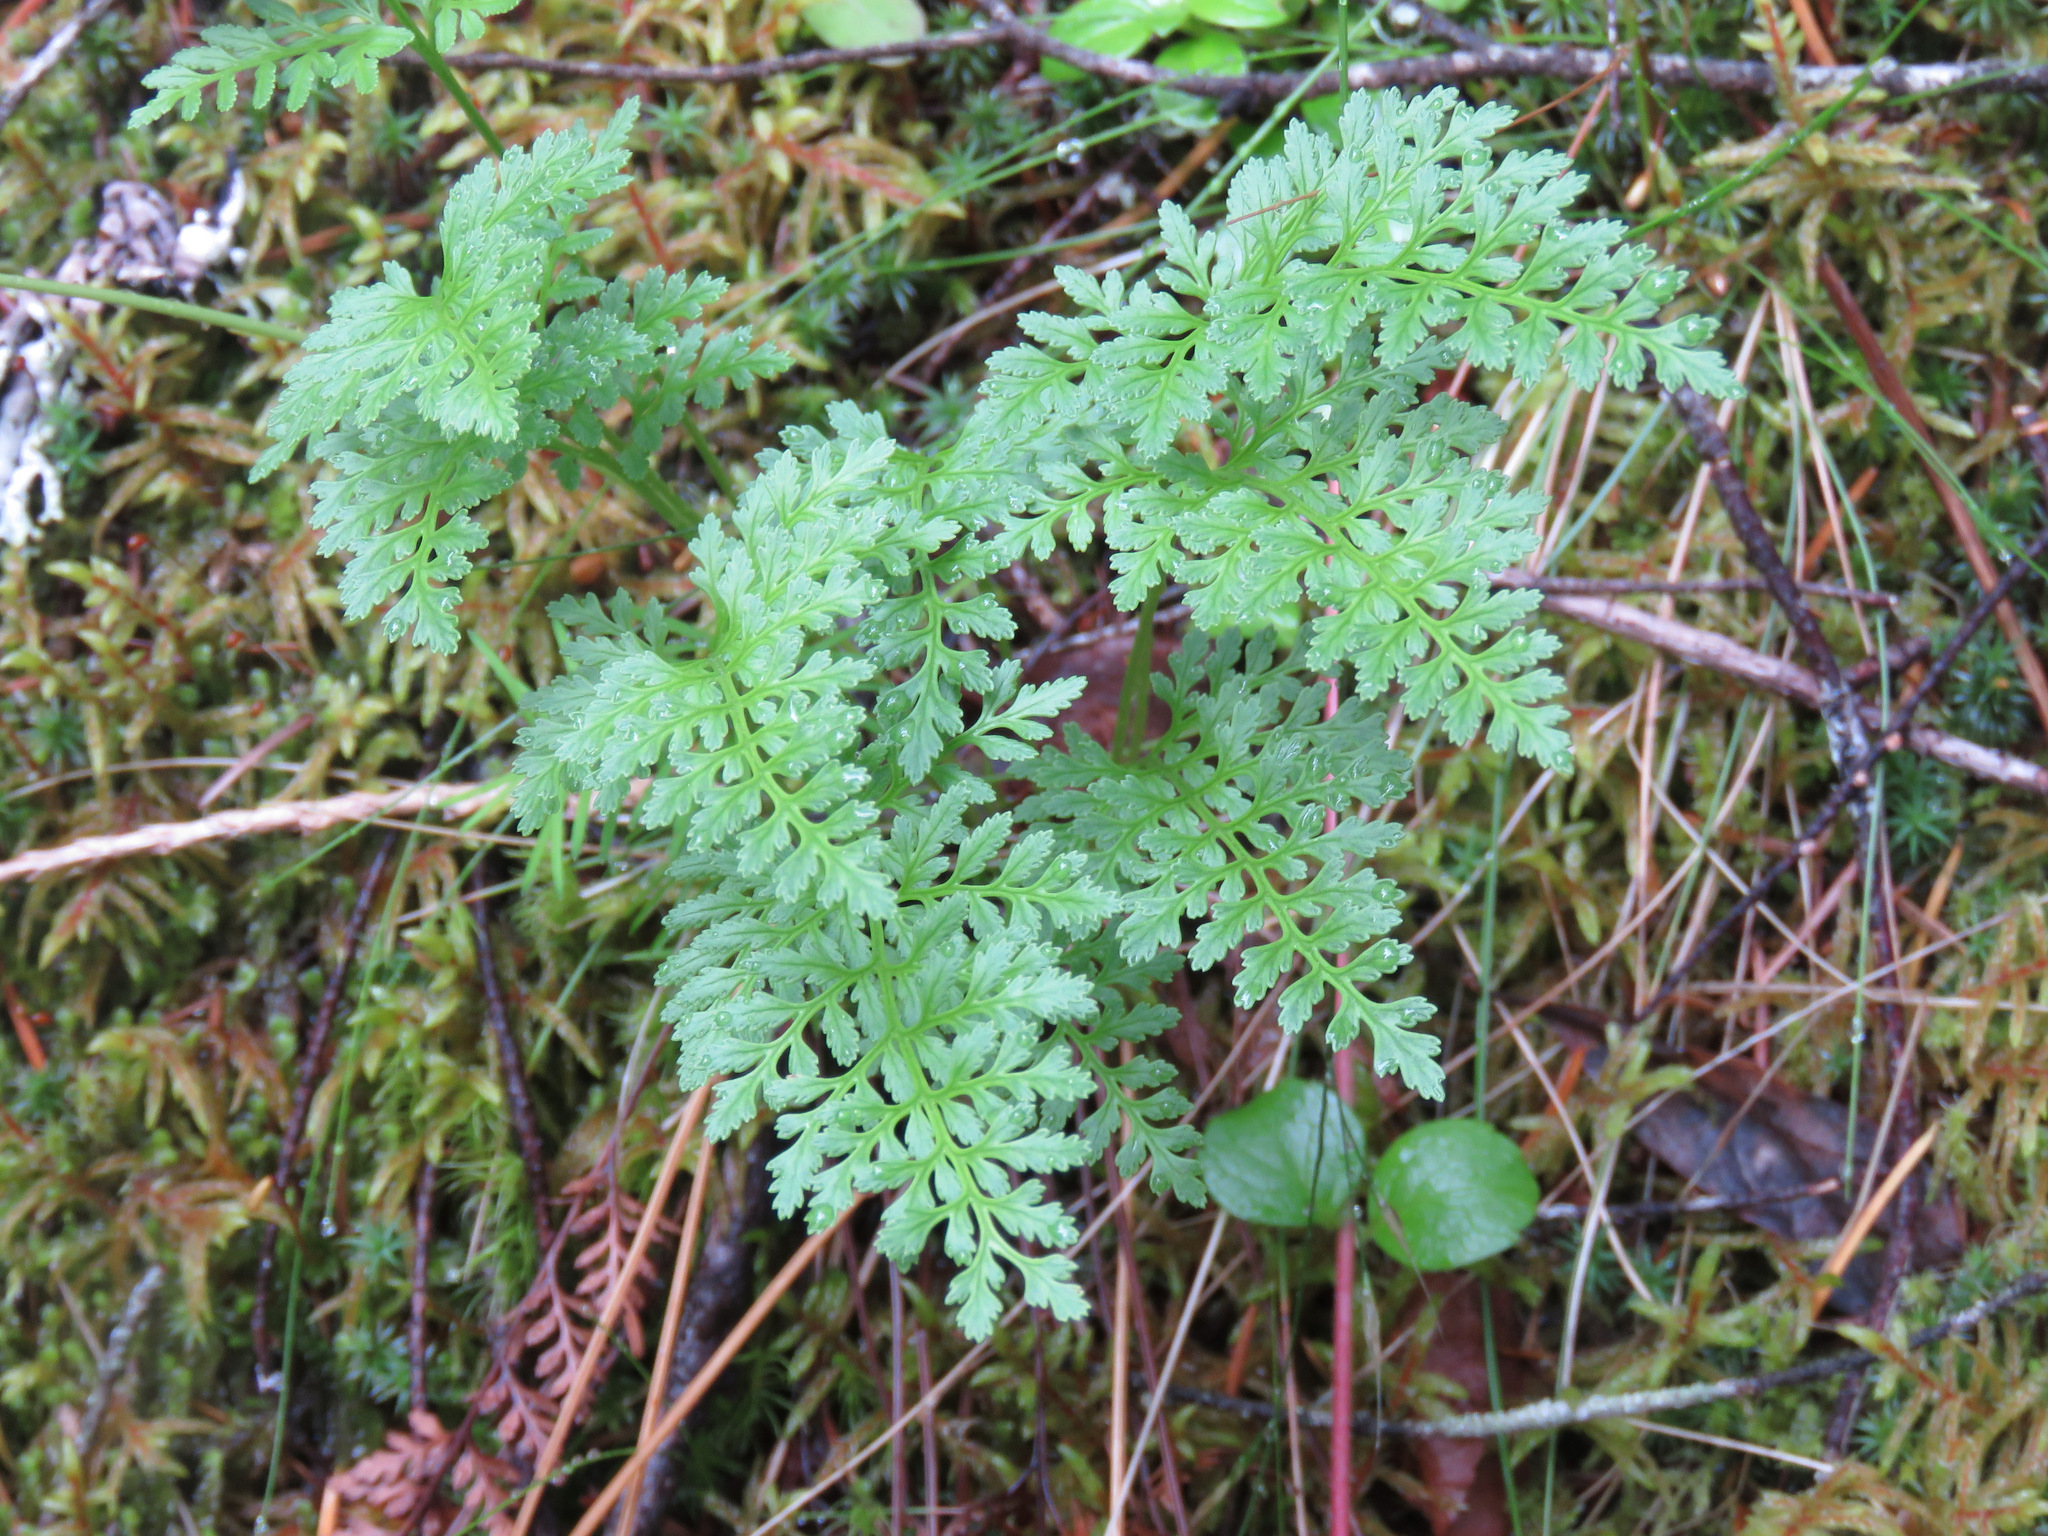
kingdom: Plantae
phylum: Tracheophyta
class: Polypodiopsida
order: Polypodiales
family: Pteridaceae
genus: Cryptogramma
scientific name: Cryptogramma acrostichoides
